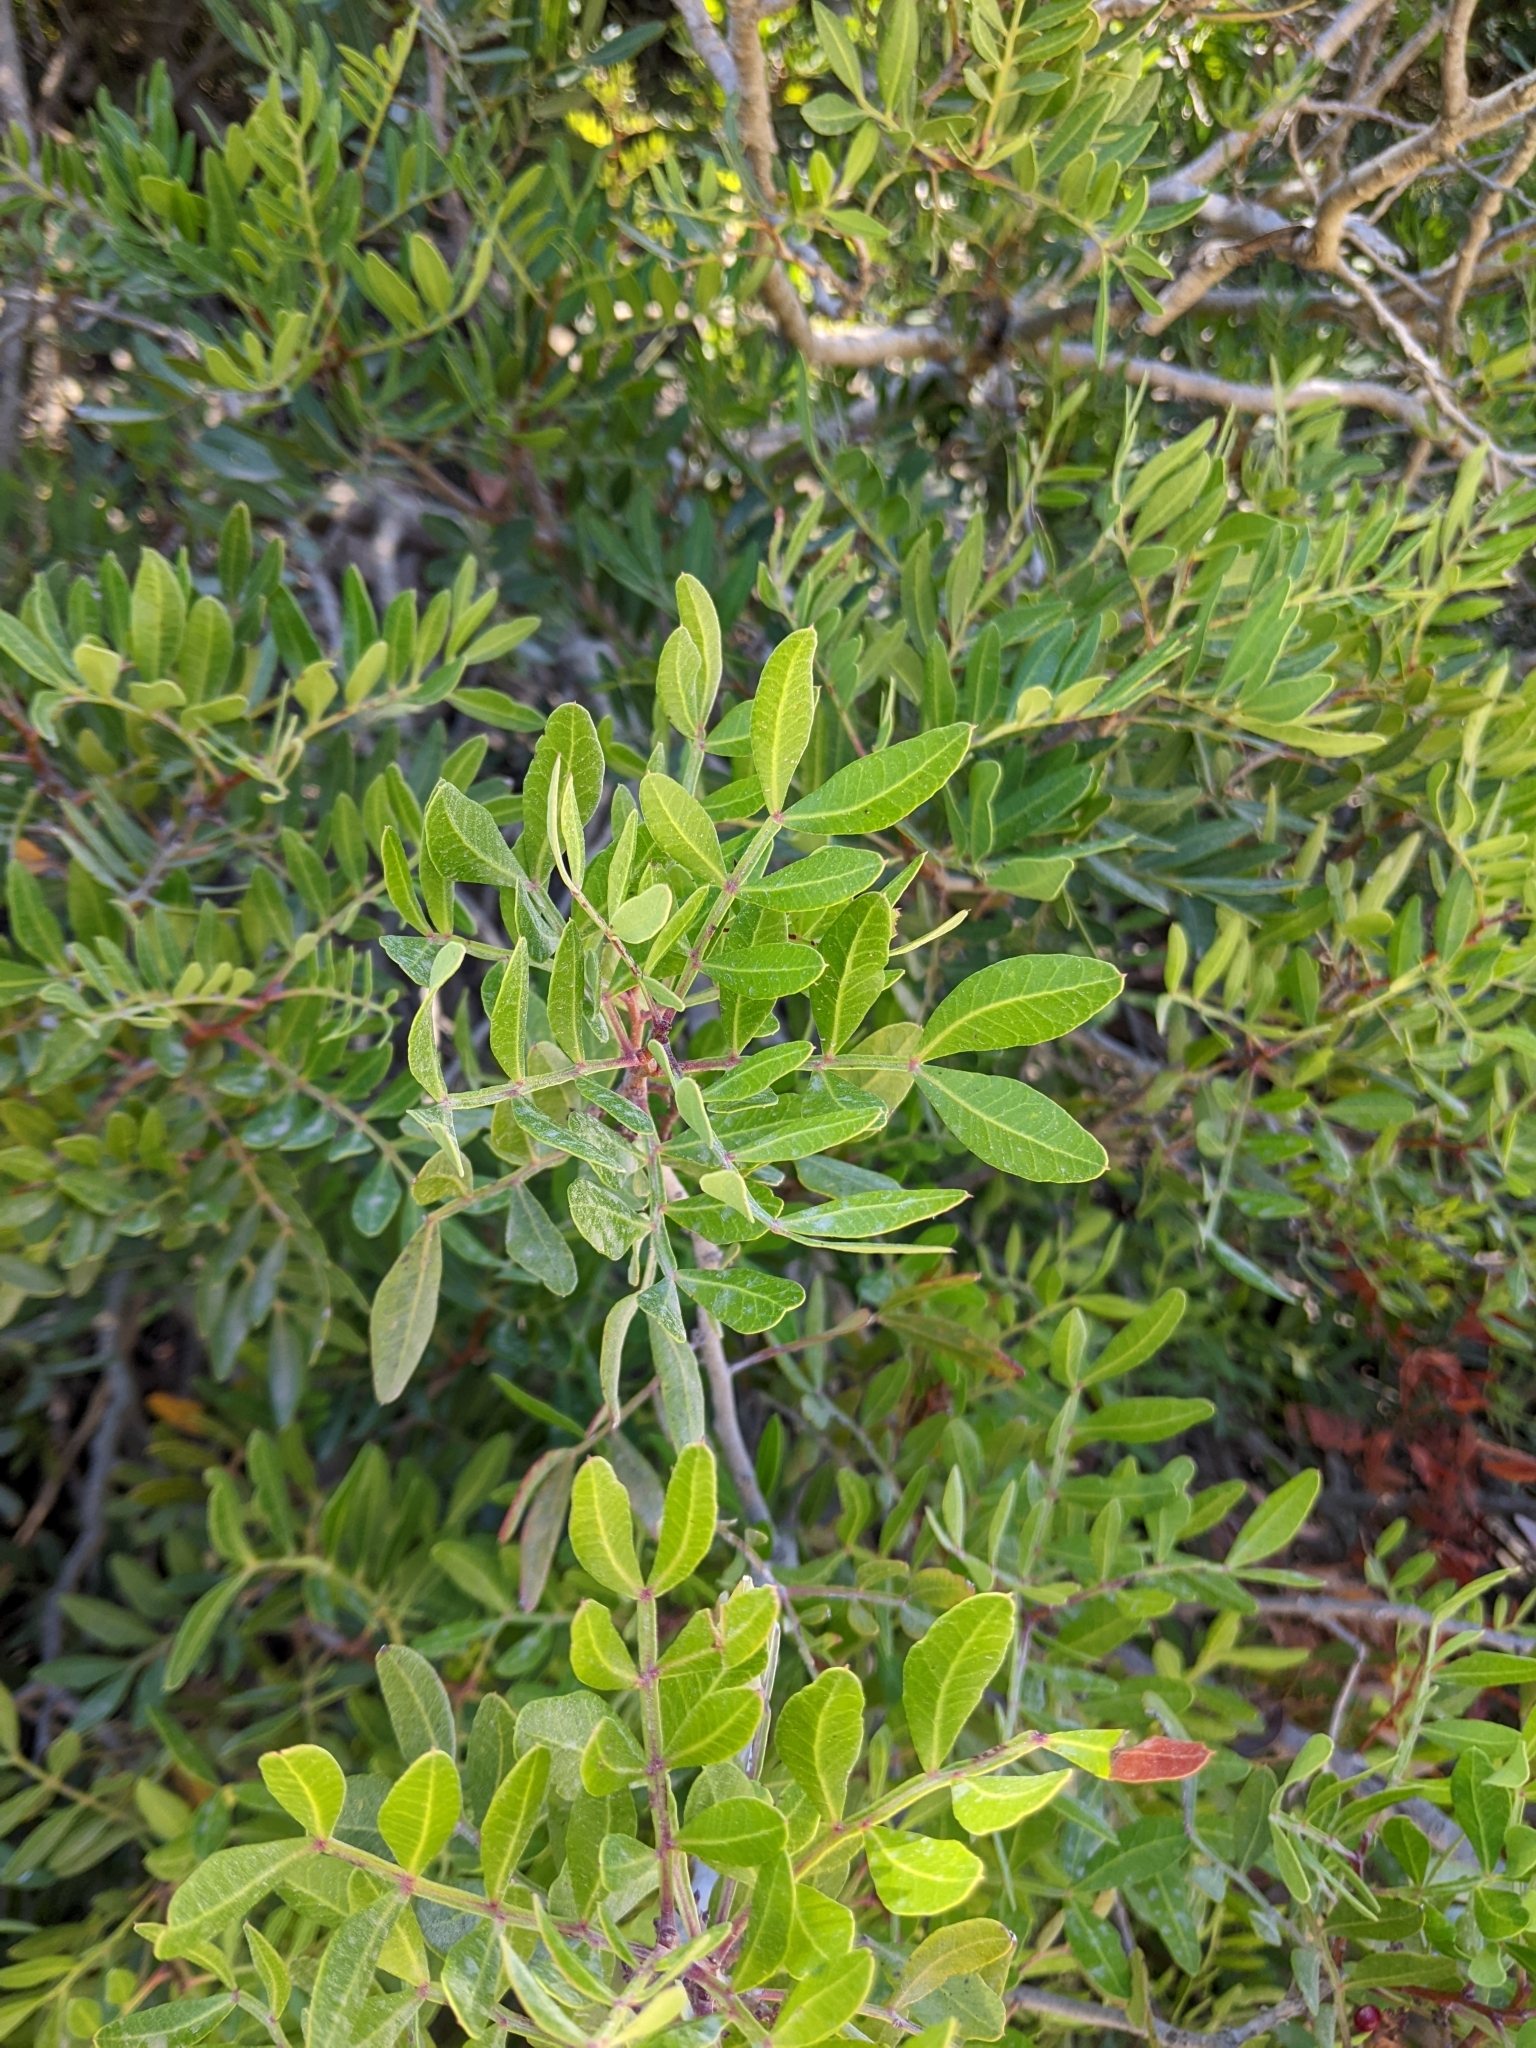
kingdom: Plantae
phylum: Tracheophyta
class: Magnoliopsida
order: Sapindales
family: Anacardiaceae
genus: Pistacia
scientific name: Pistacia lentiscus
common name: Lentisk
